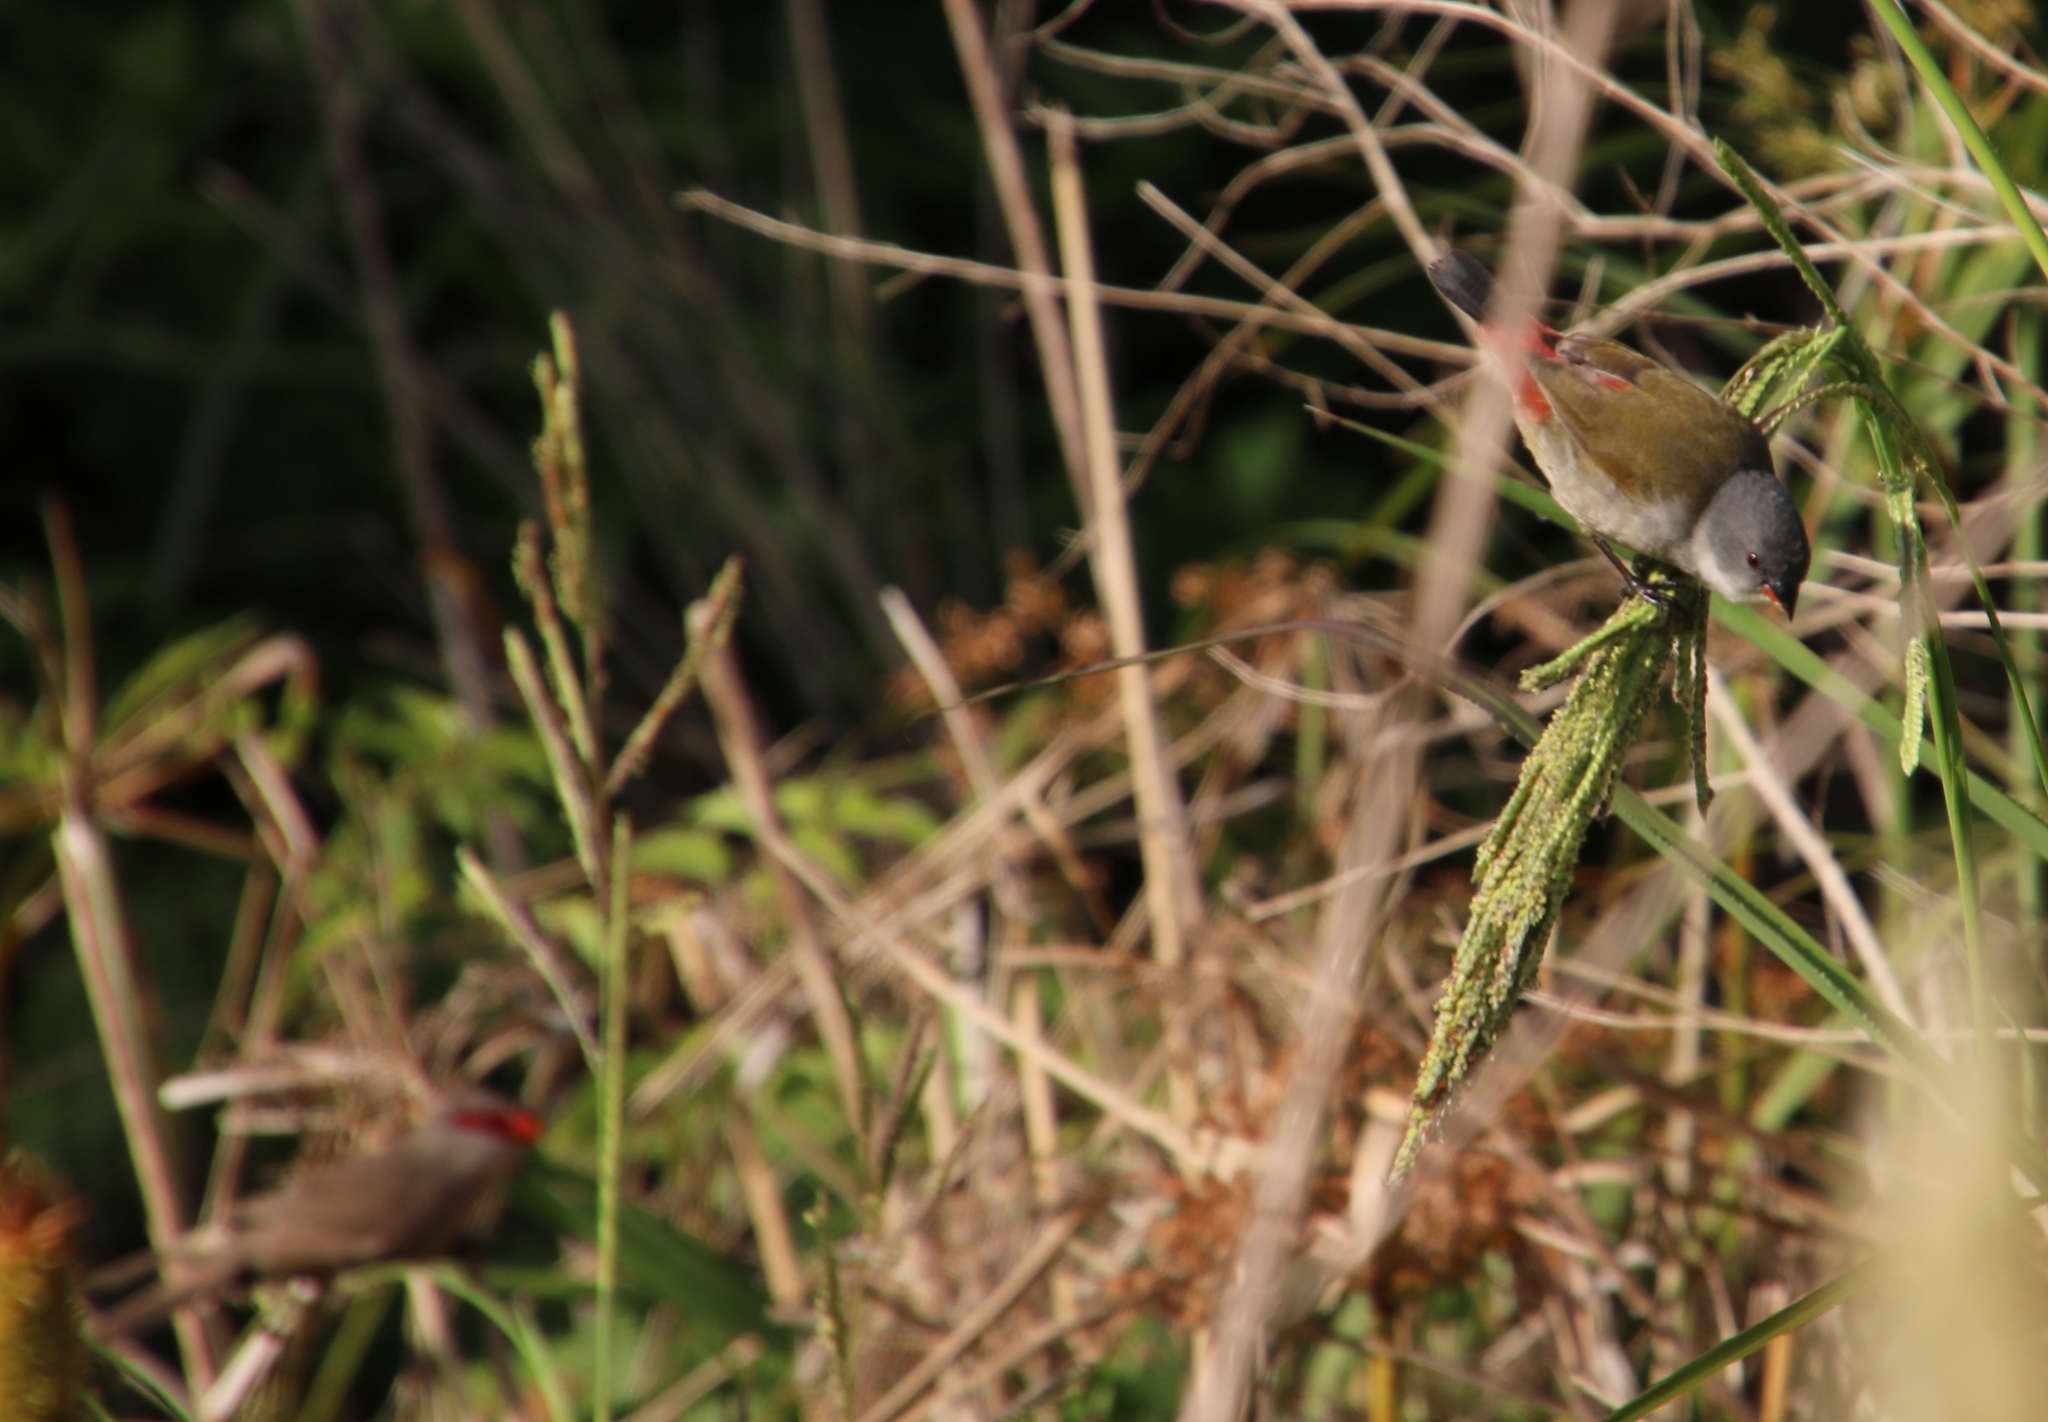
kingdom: Animalia
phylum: Chordata
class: Aves
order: Passeriformes
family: Estrildidae
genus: Coccopygia
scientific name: Coccopygia melanotis
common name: Swee waxbill
